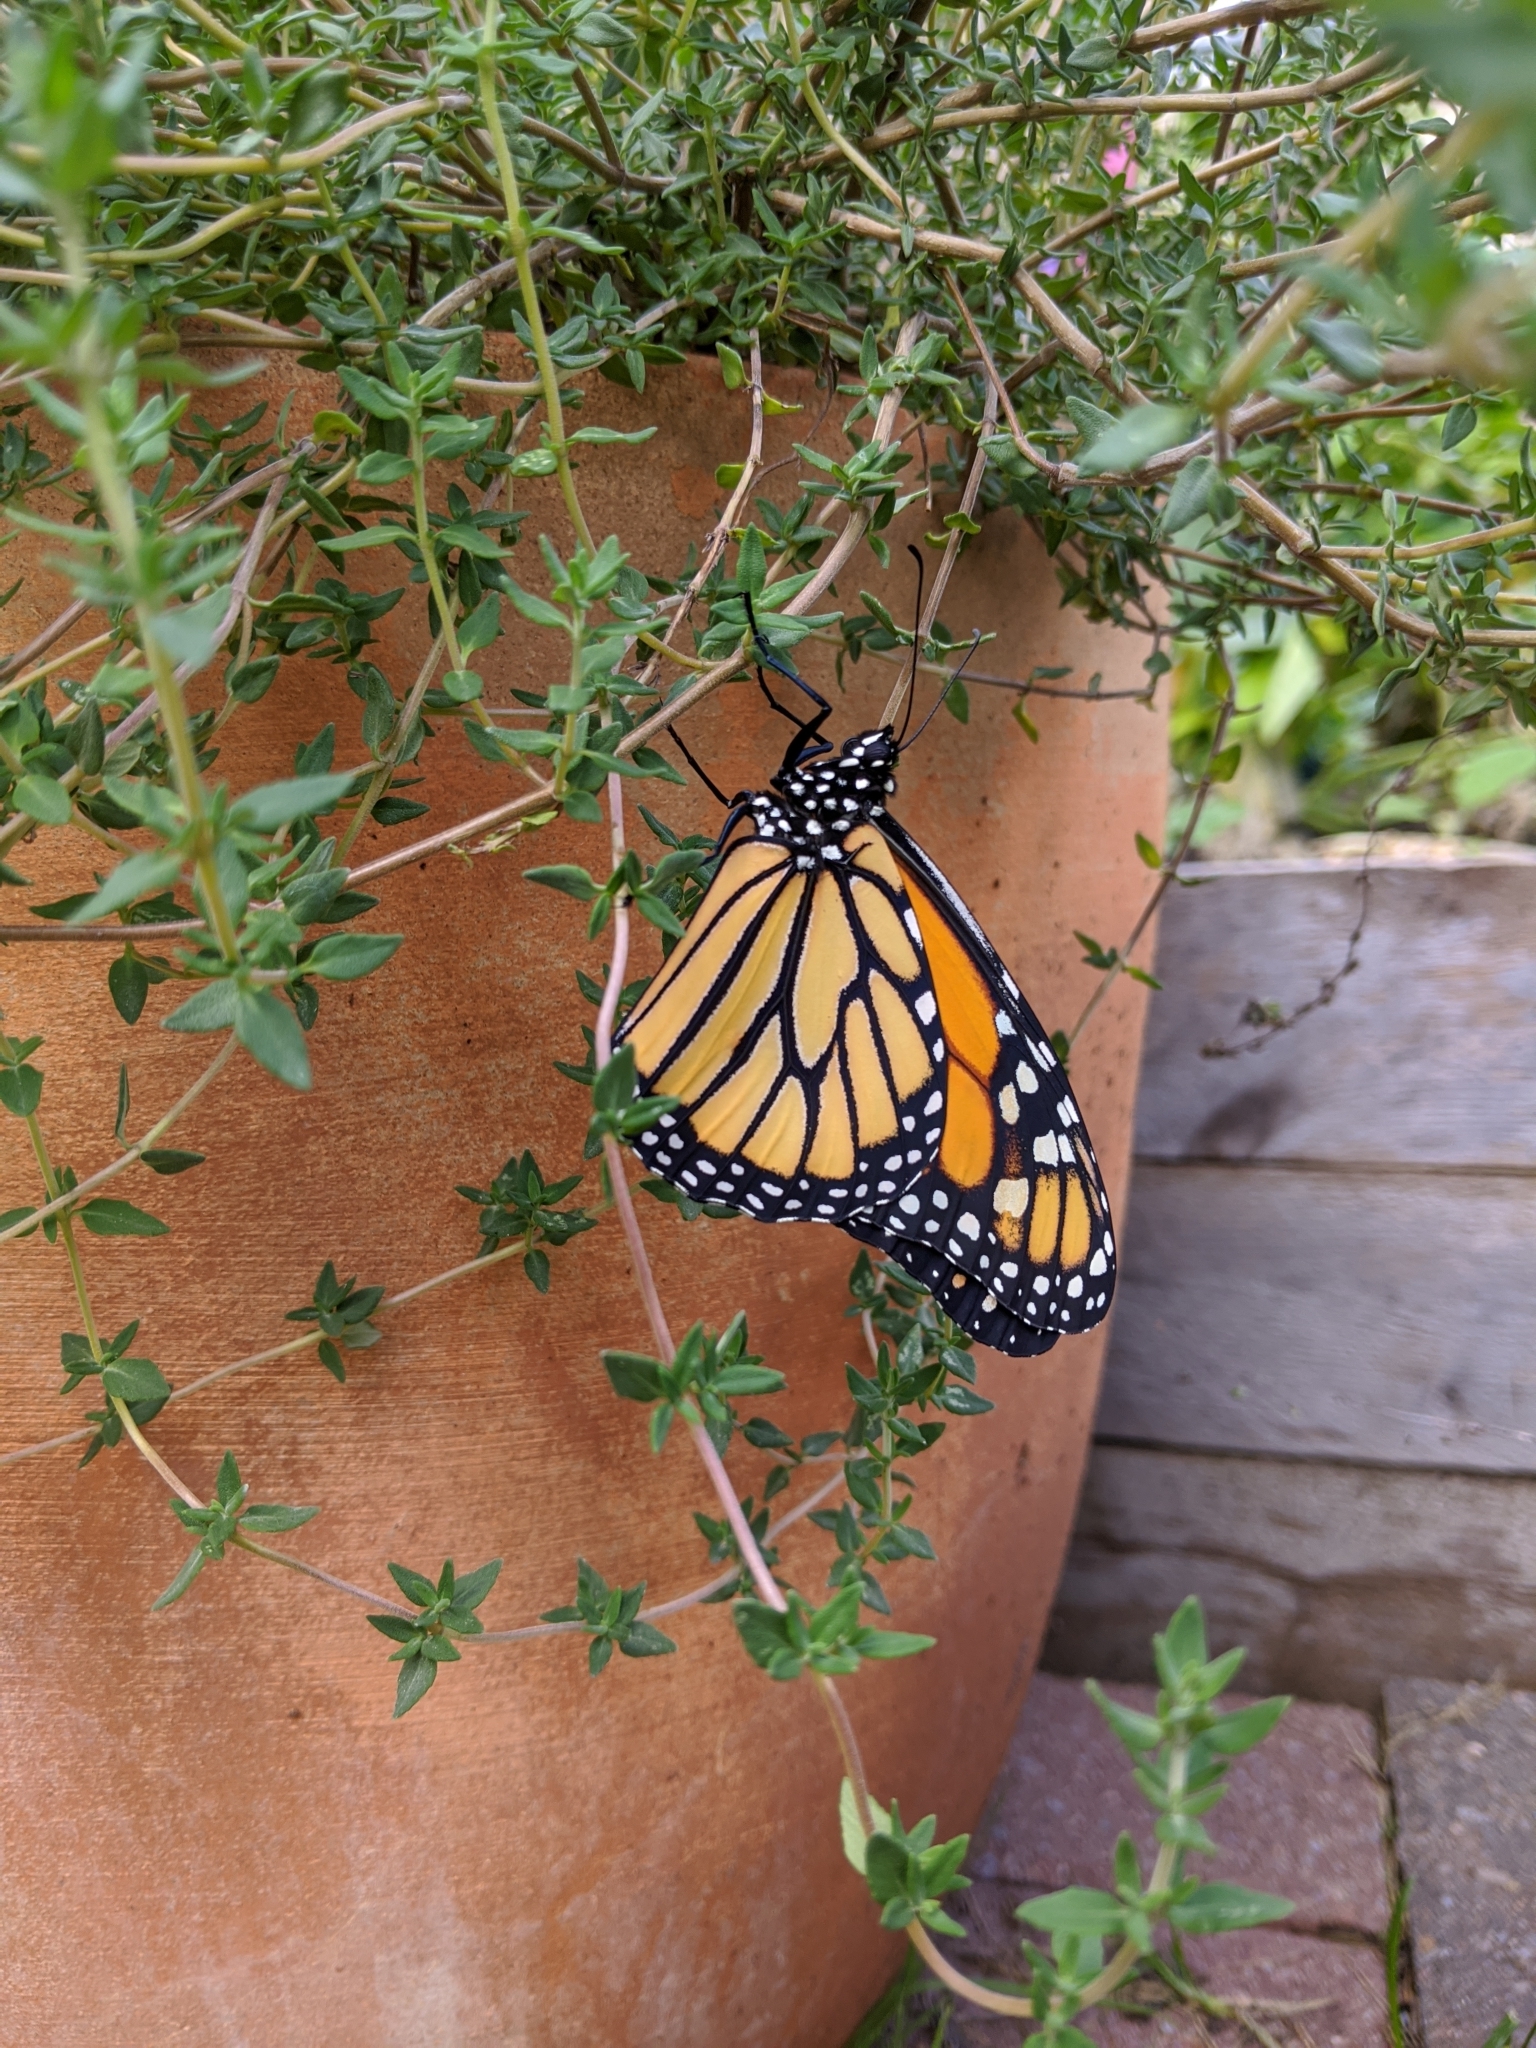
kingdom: Animalia
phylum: Arthropoda
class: Insecta
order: Lepidoptera
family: Nymphalidae
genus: Danaus
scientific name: Danaus plexippus
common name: Monarch
